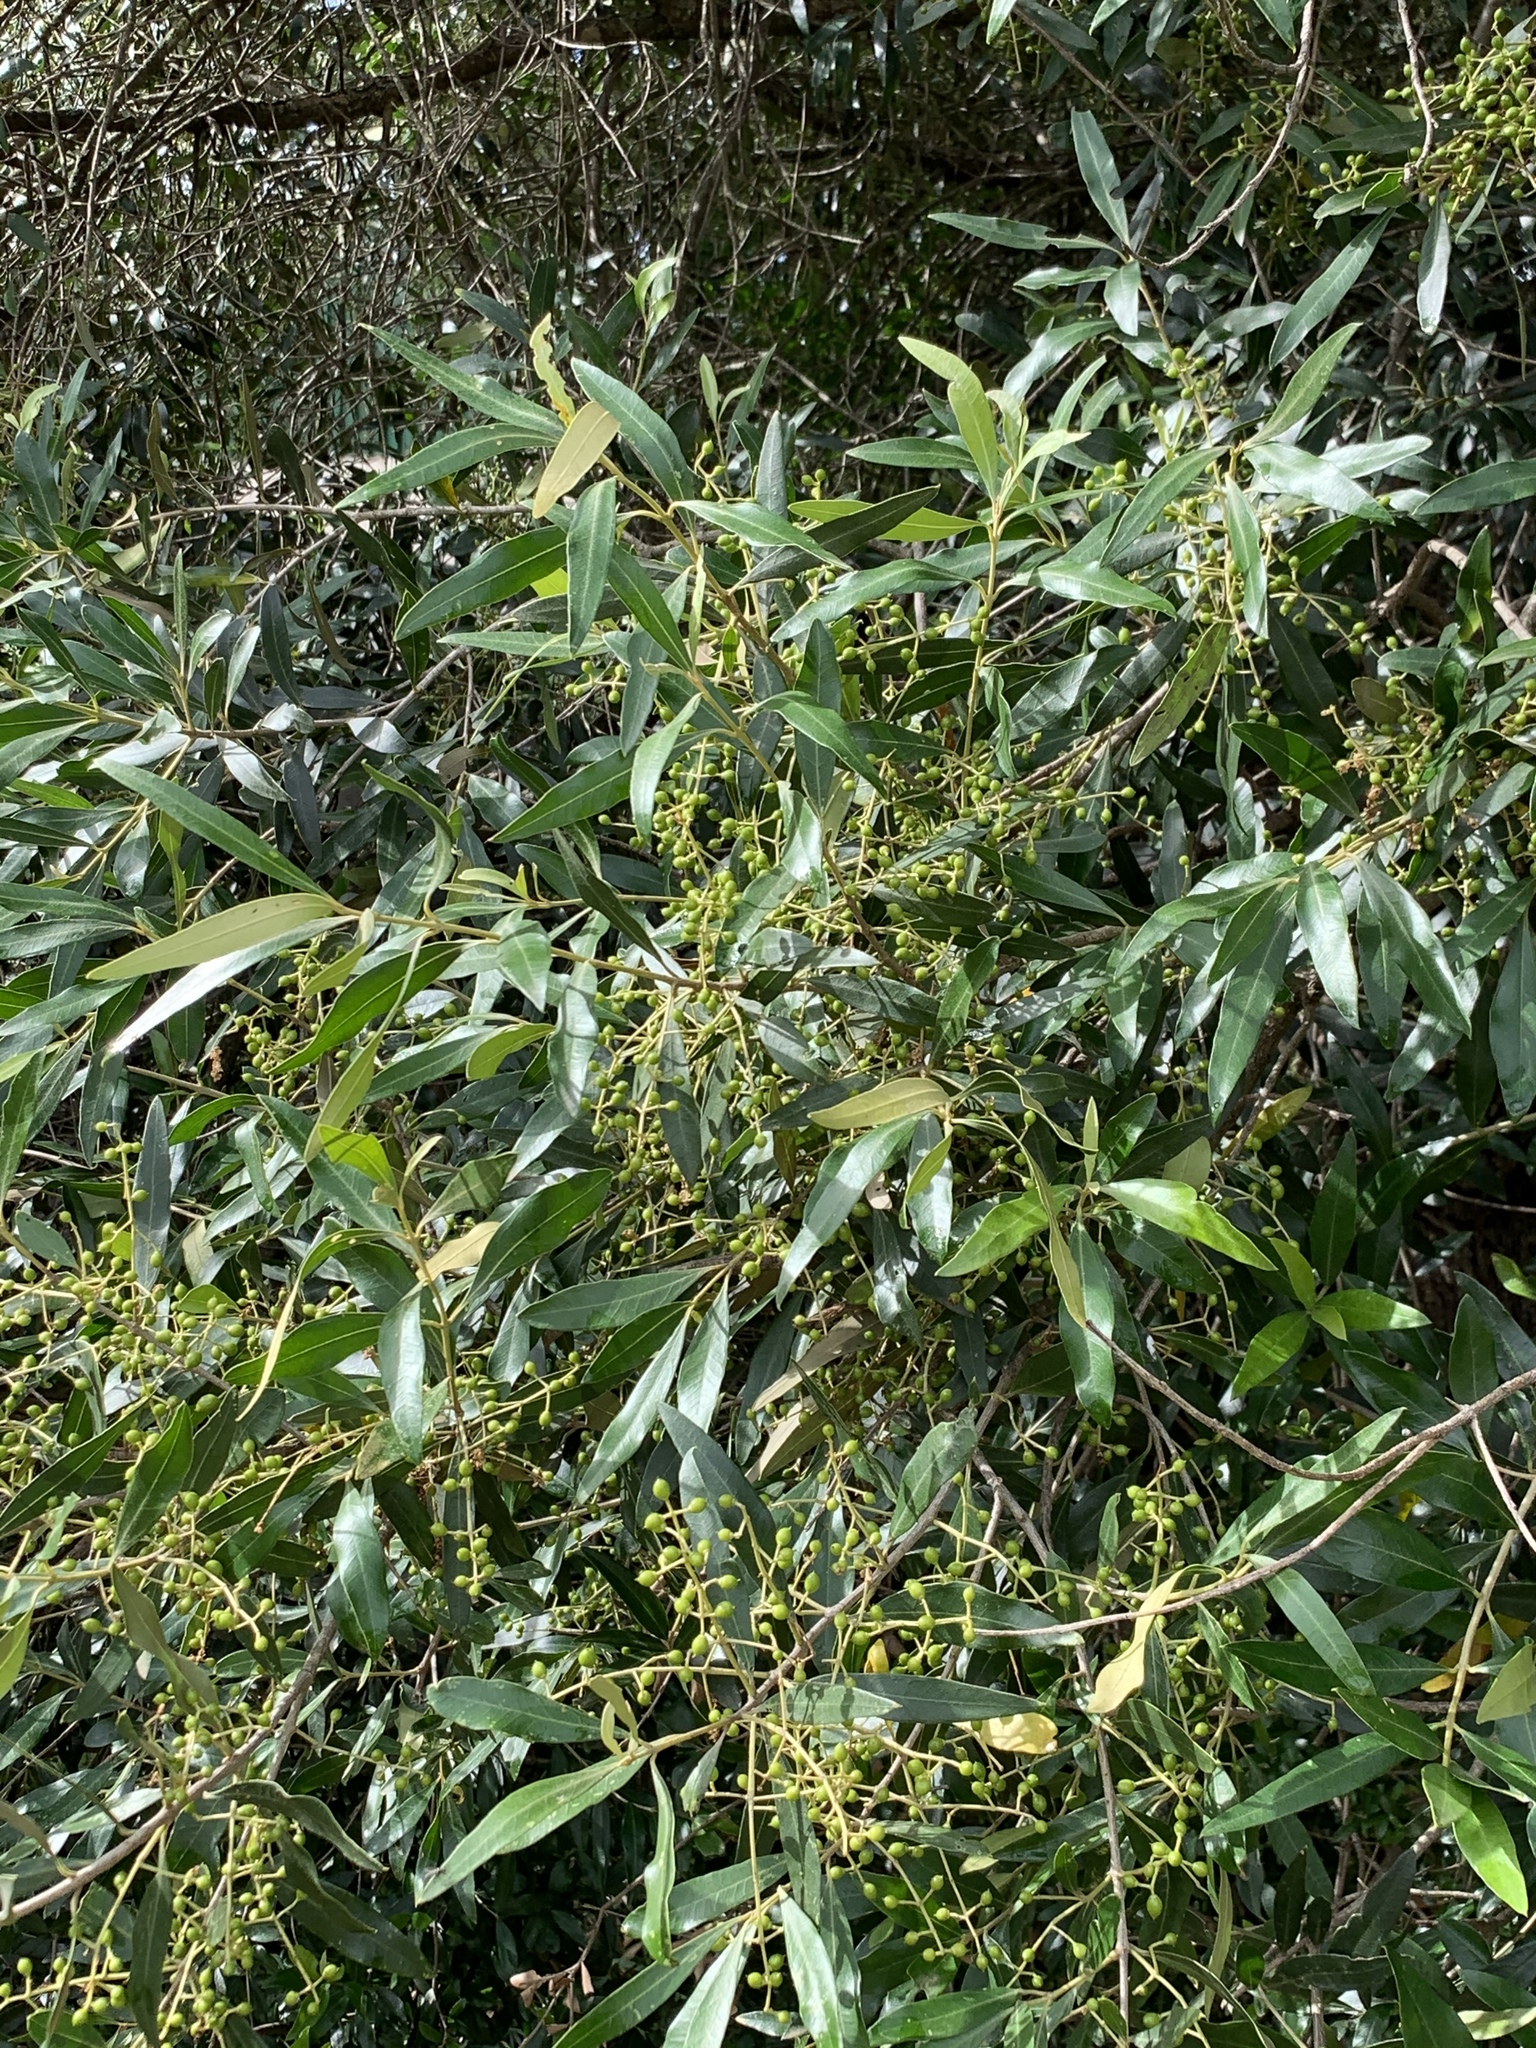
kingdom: Plantae
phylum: Tracheophyta
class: Magnoliopsida
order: Lamiales
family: Oleaceae
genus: Olea
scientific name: Olea europaea
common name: Olive
